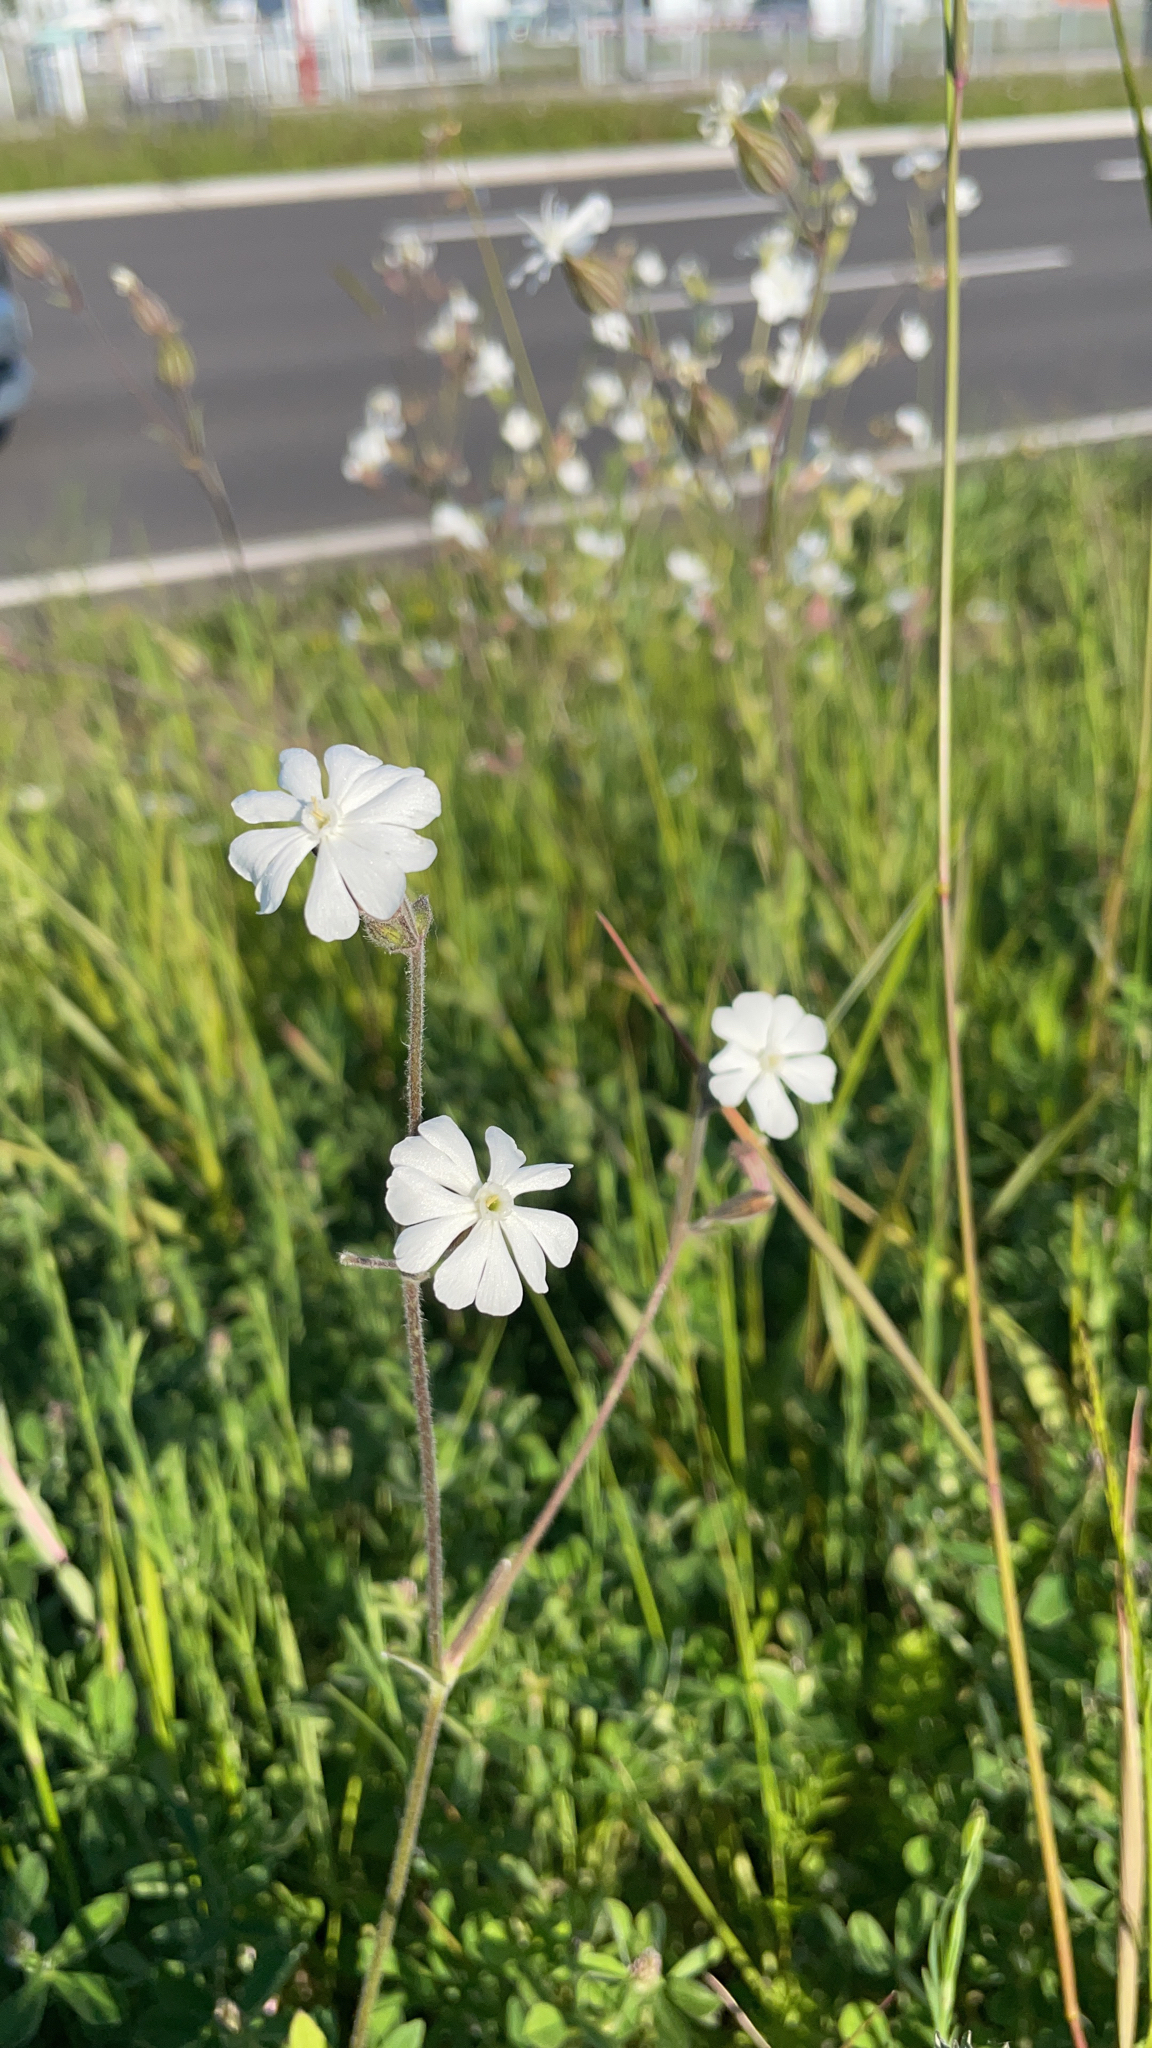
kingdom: Plantae
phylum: Tracheophyta
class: Magnoliopsida
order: Caryophyllales
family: Caryophyllaceae
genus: Silene
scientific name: Silene latifolia
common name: White campion
